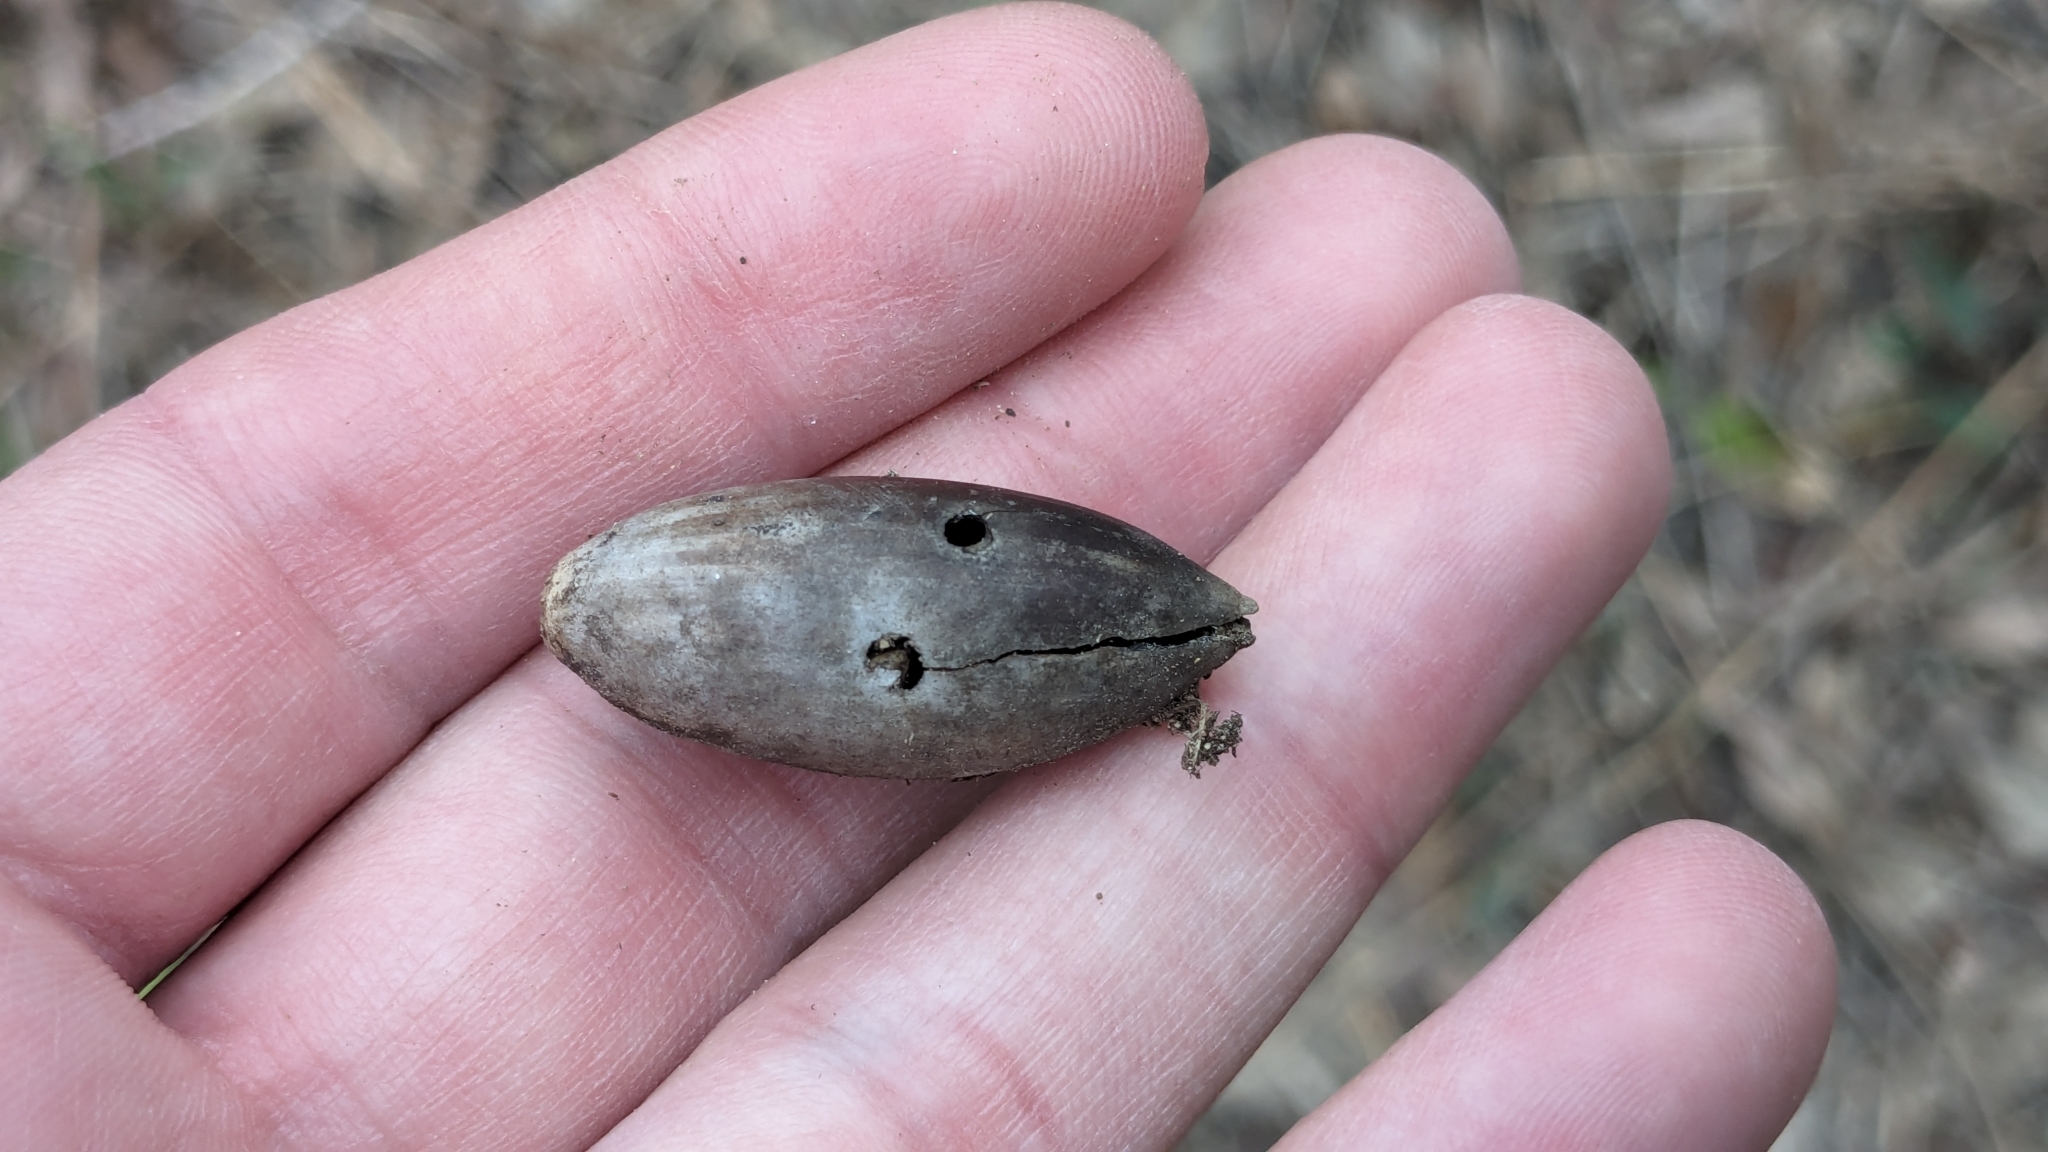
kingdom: Plantae
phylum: Tracheophyta
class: Magnoliopsida
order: Fagales
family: Fagaceae
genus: Quercus
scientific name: Quercus fusiformis
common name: Texas live oak
